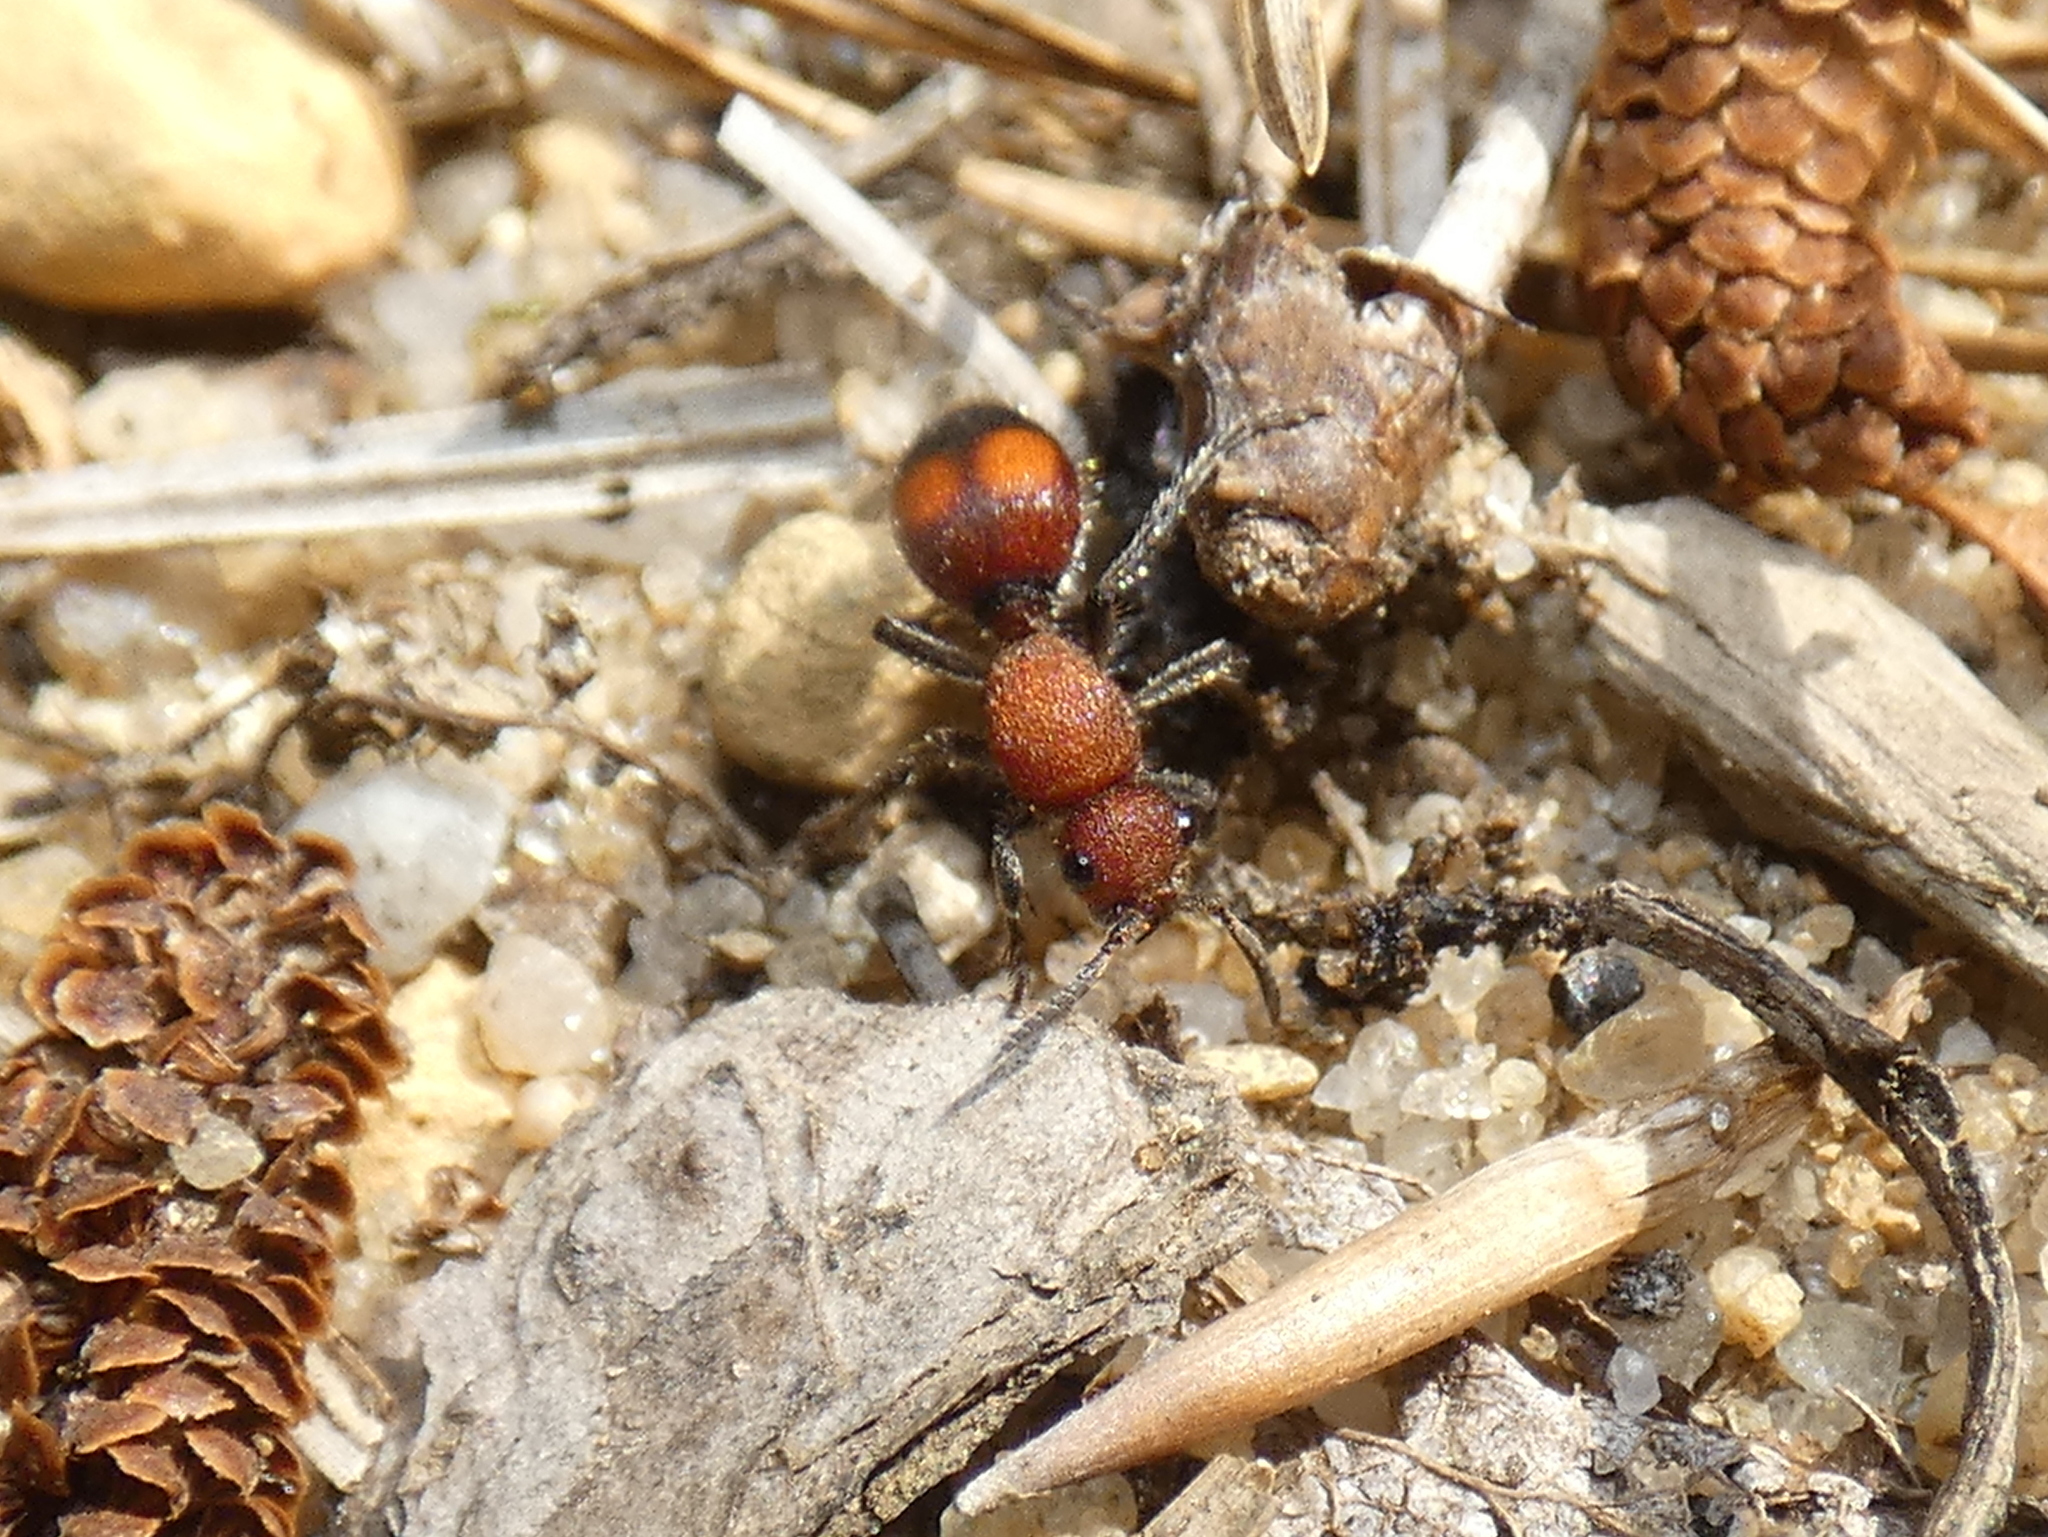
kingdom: Animalia
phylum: Arthropoda
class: Insecta
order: Hymenoptera
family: Mutillidae
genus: Dasymutilla
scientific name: Dasymutilla
